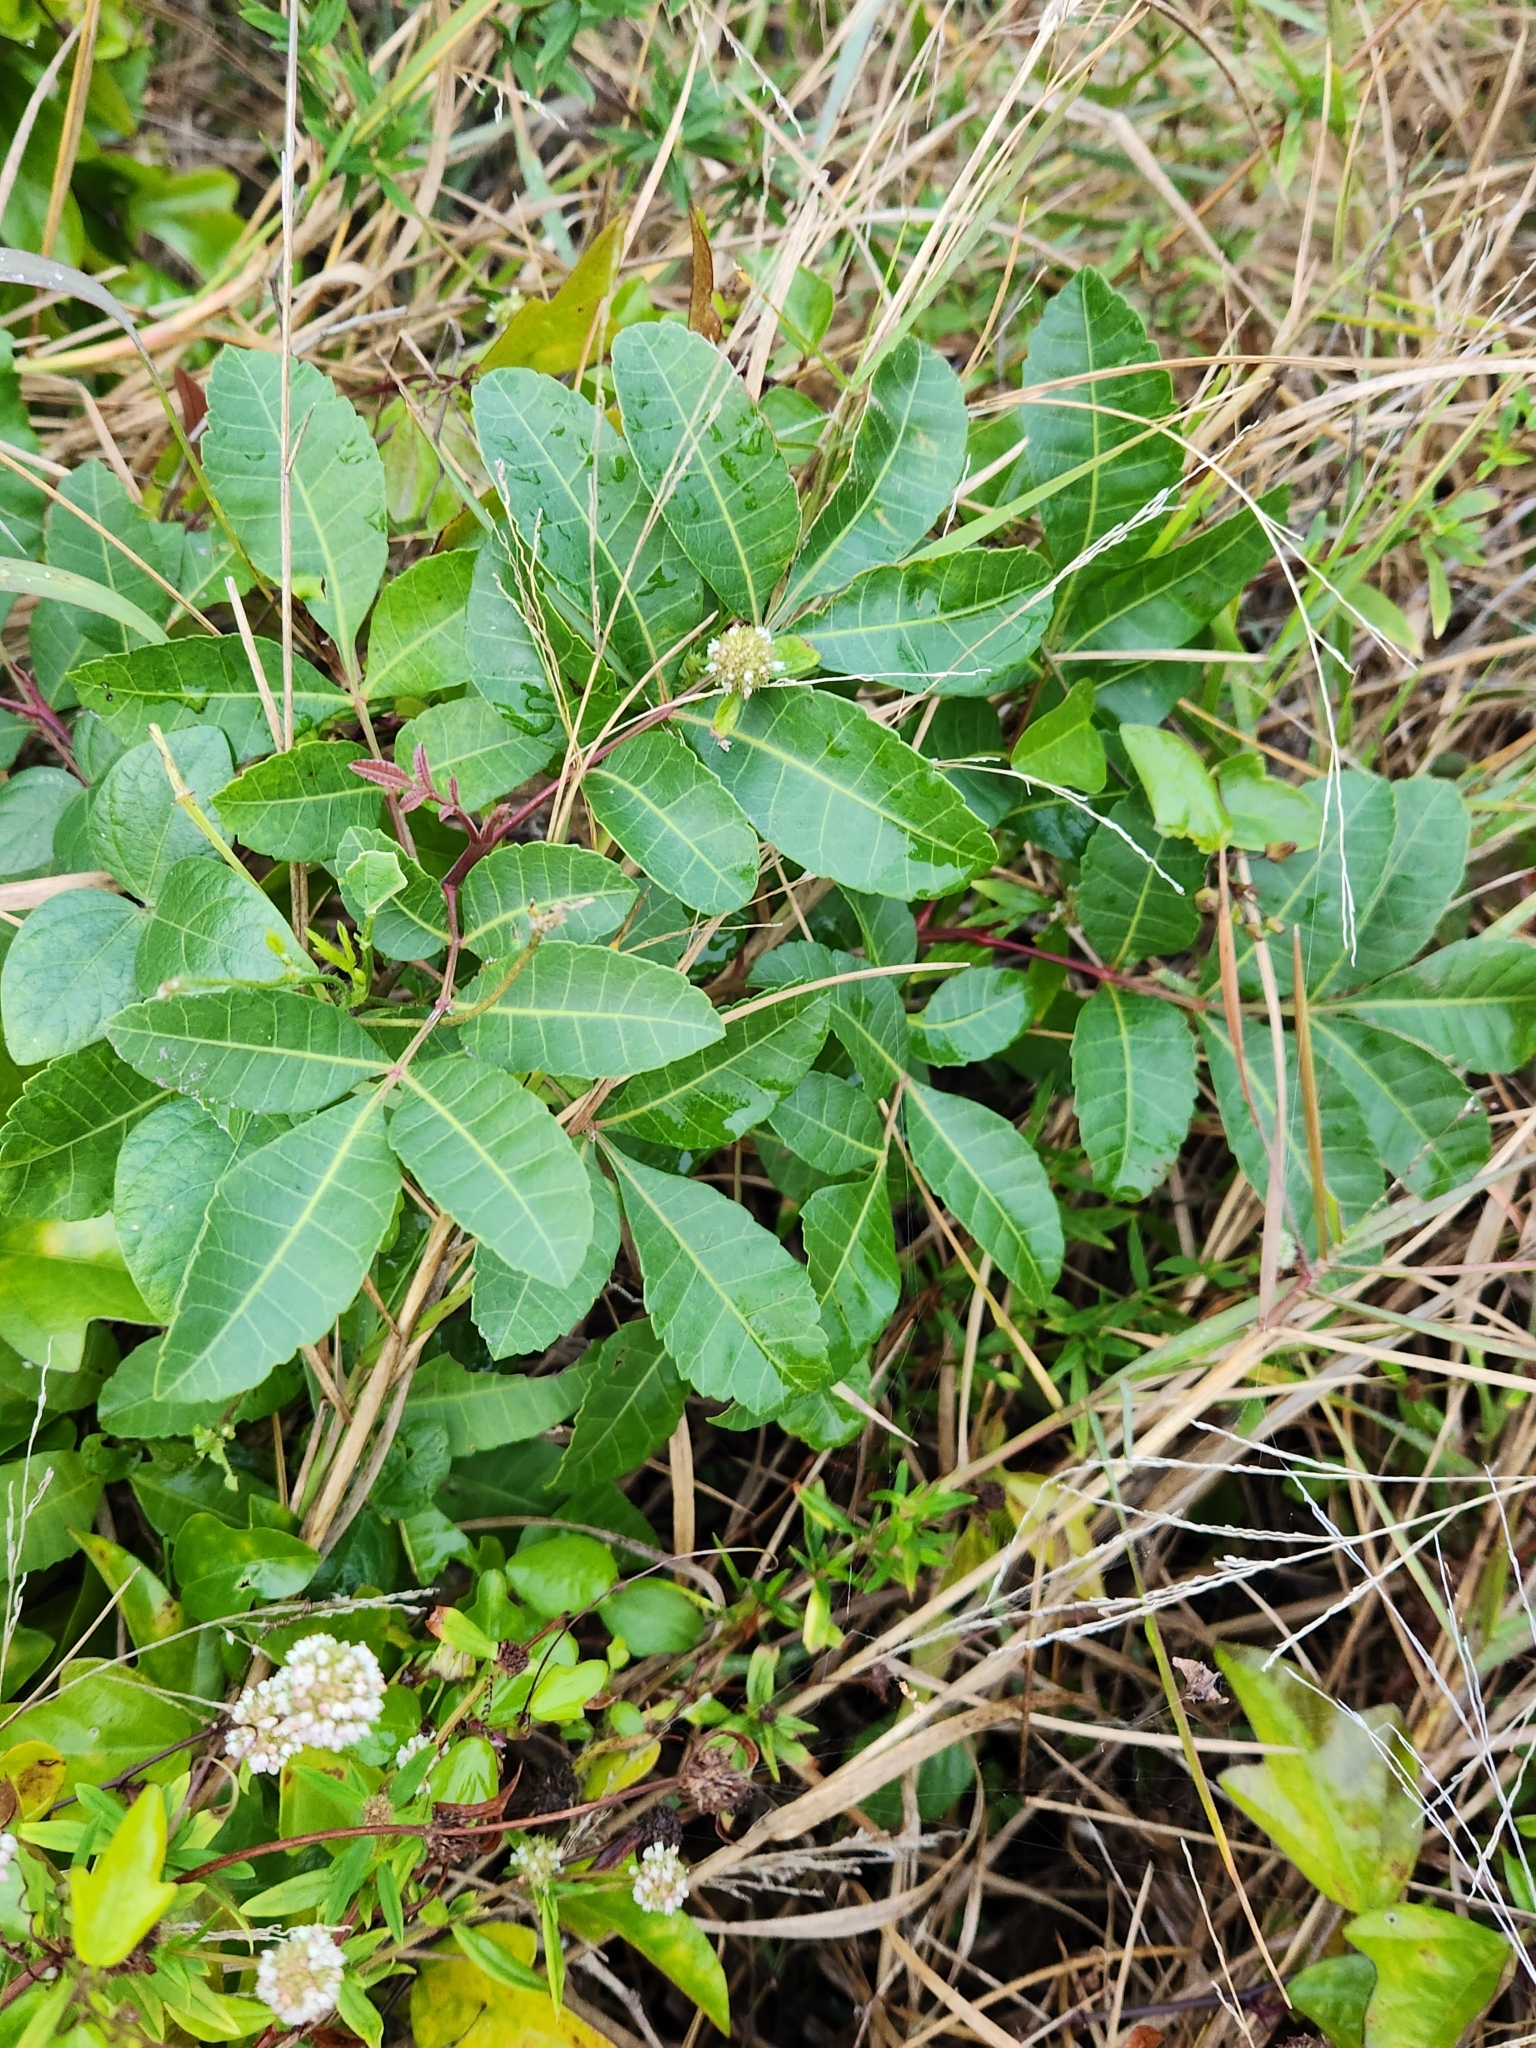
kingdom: Plantae
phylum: Tracheophyta
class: Magnoliopsida
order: Sapindales
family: Anacardiaceae
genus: Schinus
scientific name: Schinus terebinthifolia
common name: Brazilian peppertree
